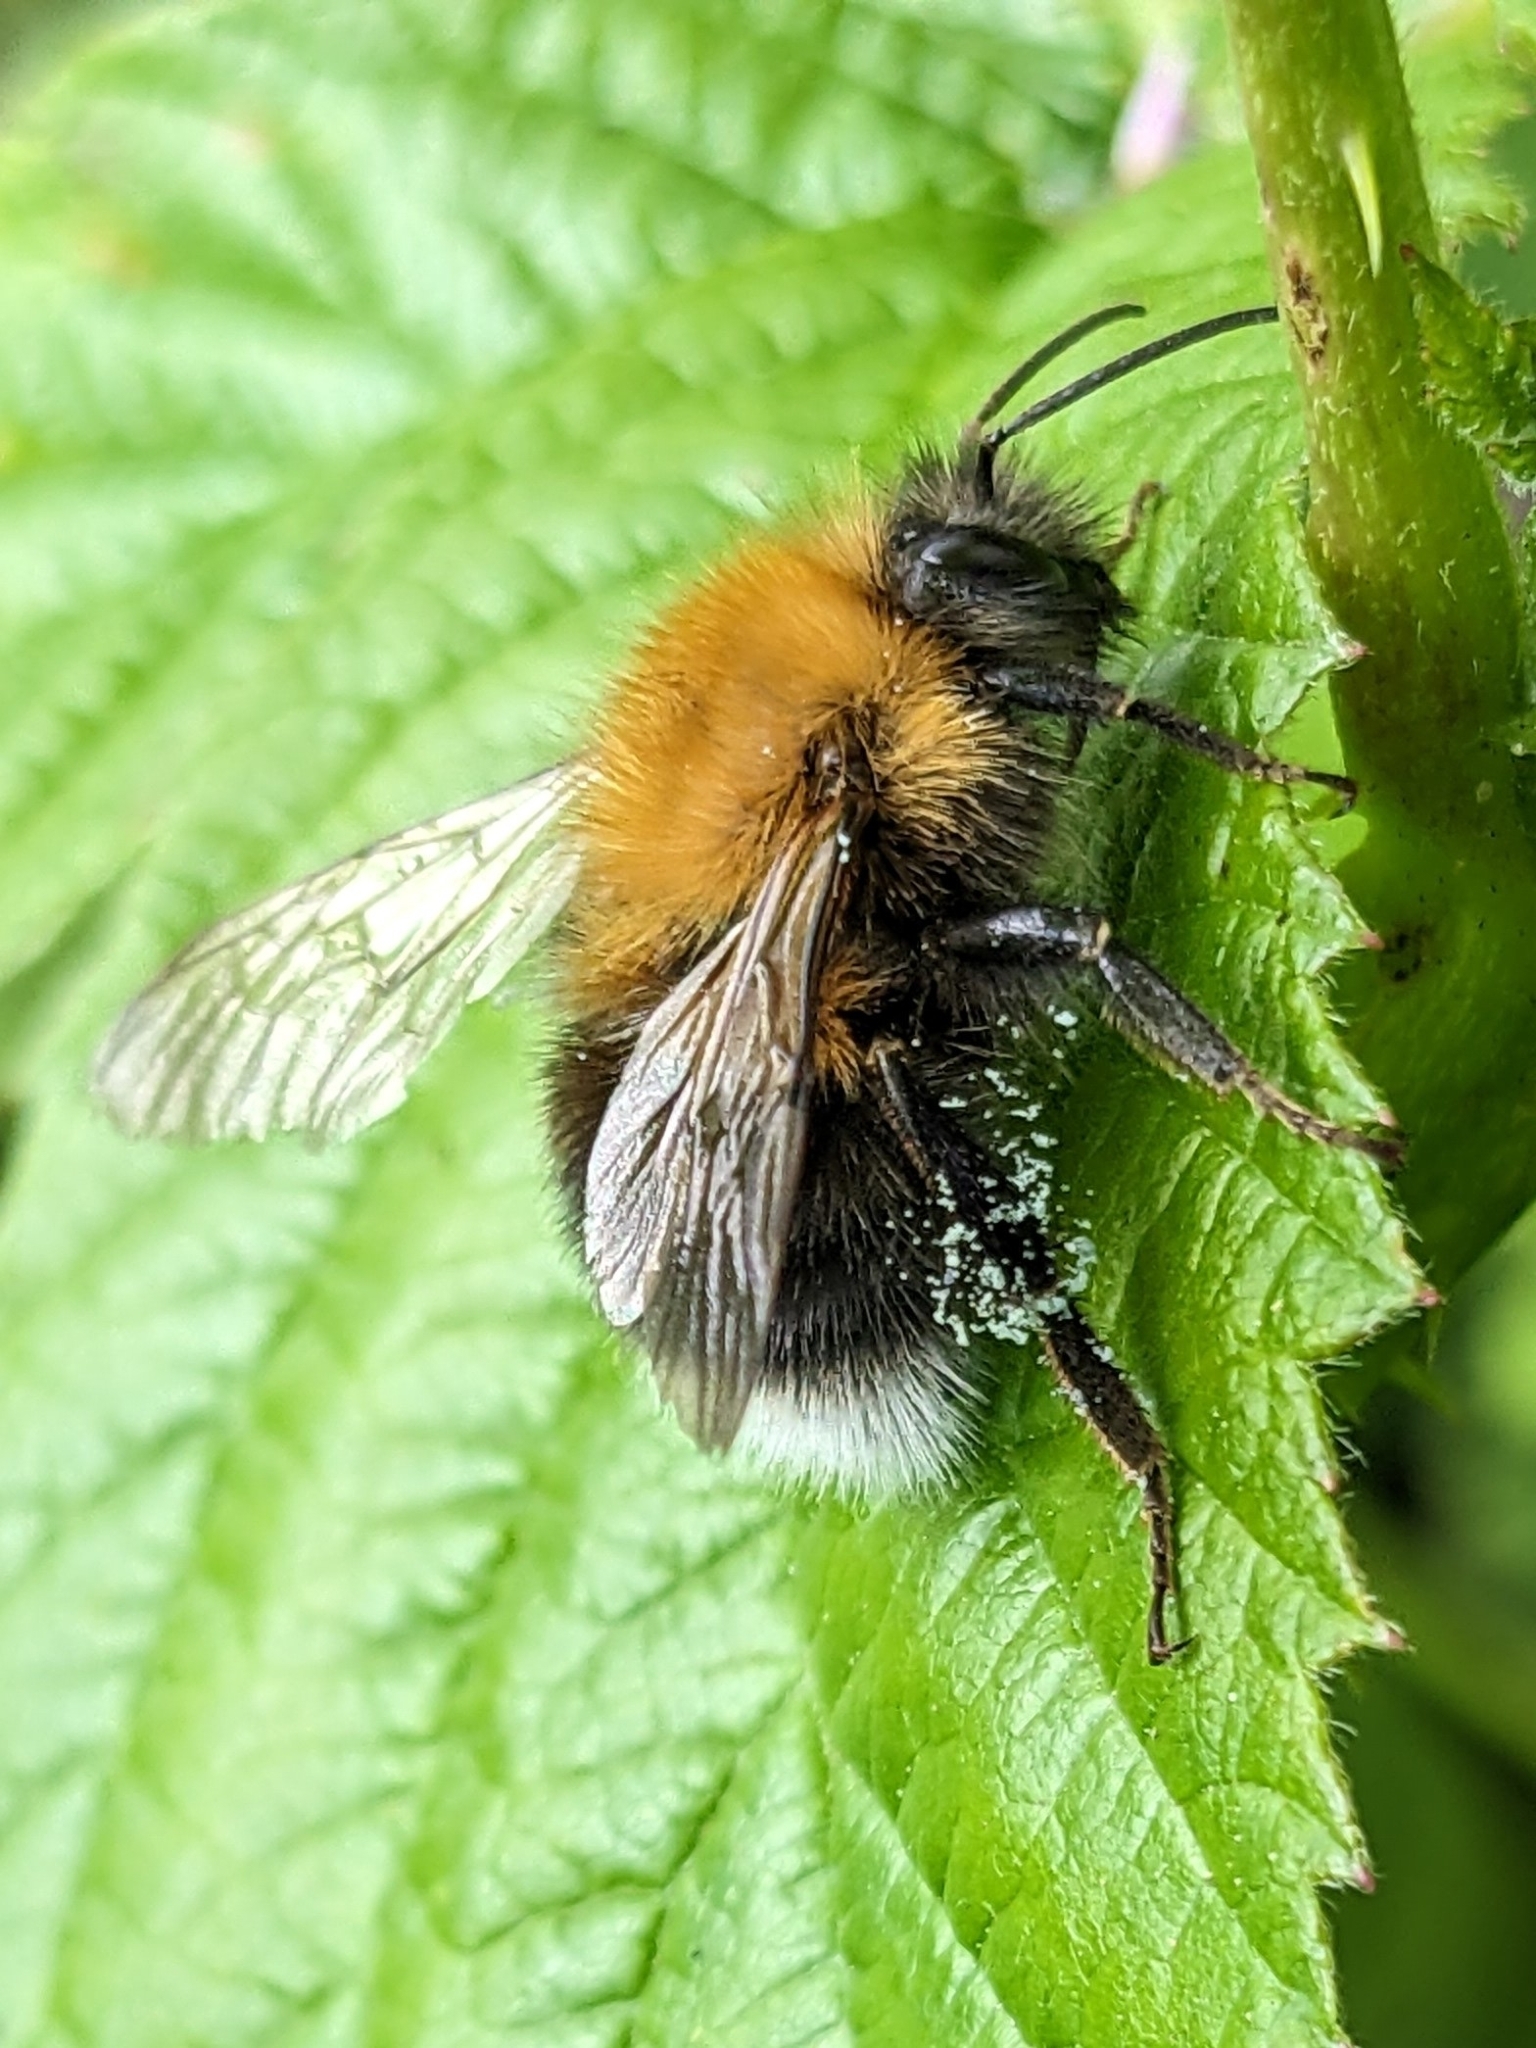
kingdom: Animalia
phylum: Arthropoda
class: Insecta
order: Hymenoptera
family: Apidae
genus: Bombus
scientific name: Bombus hypnorum
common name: New garden bumblebee
